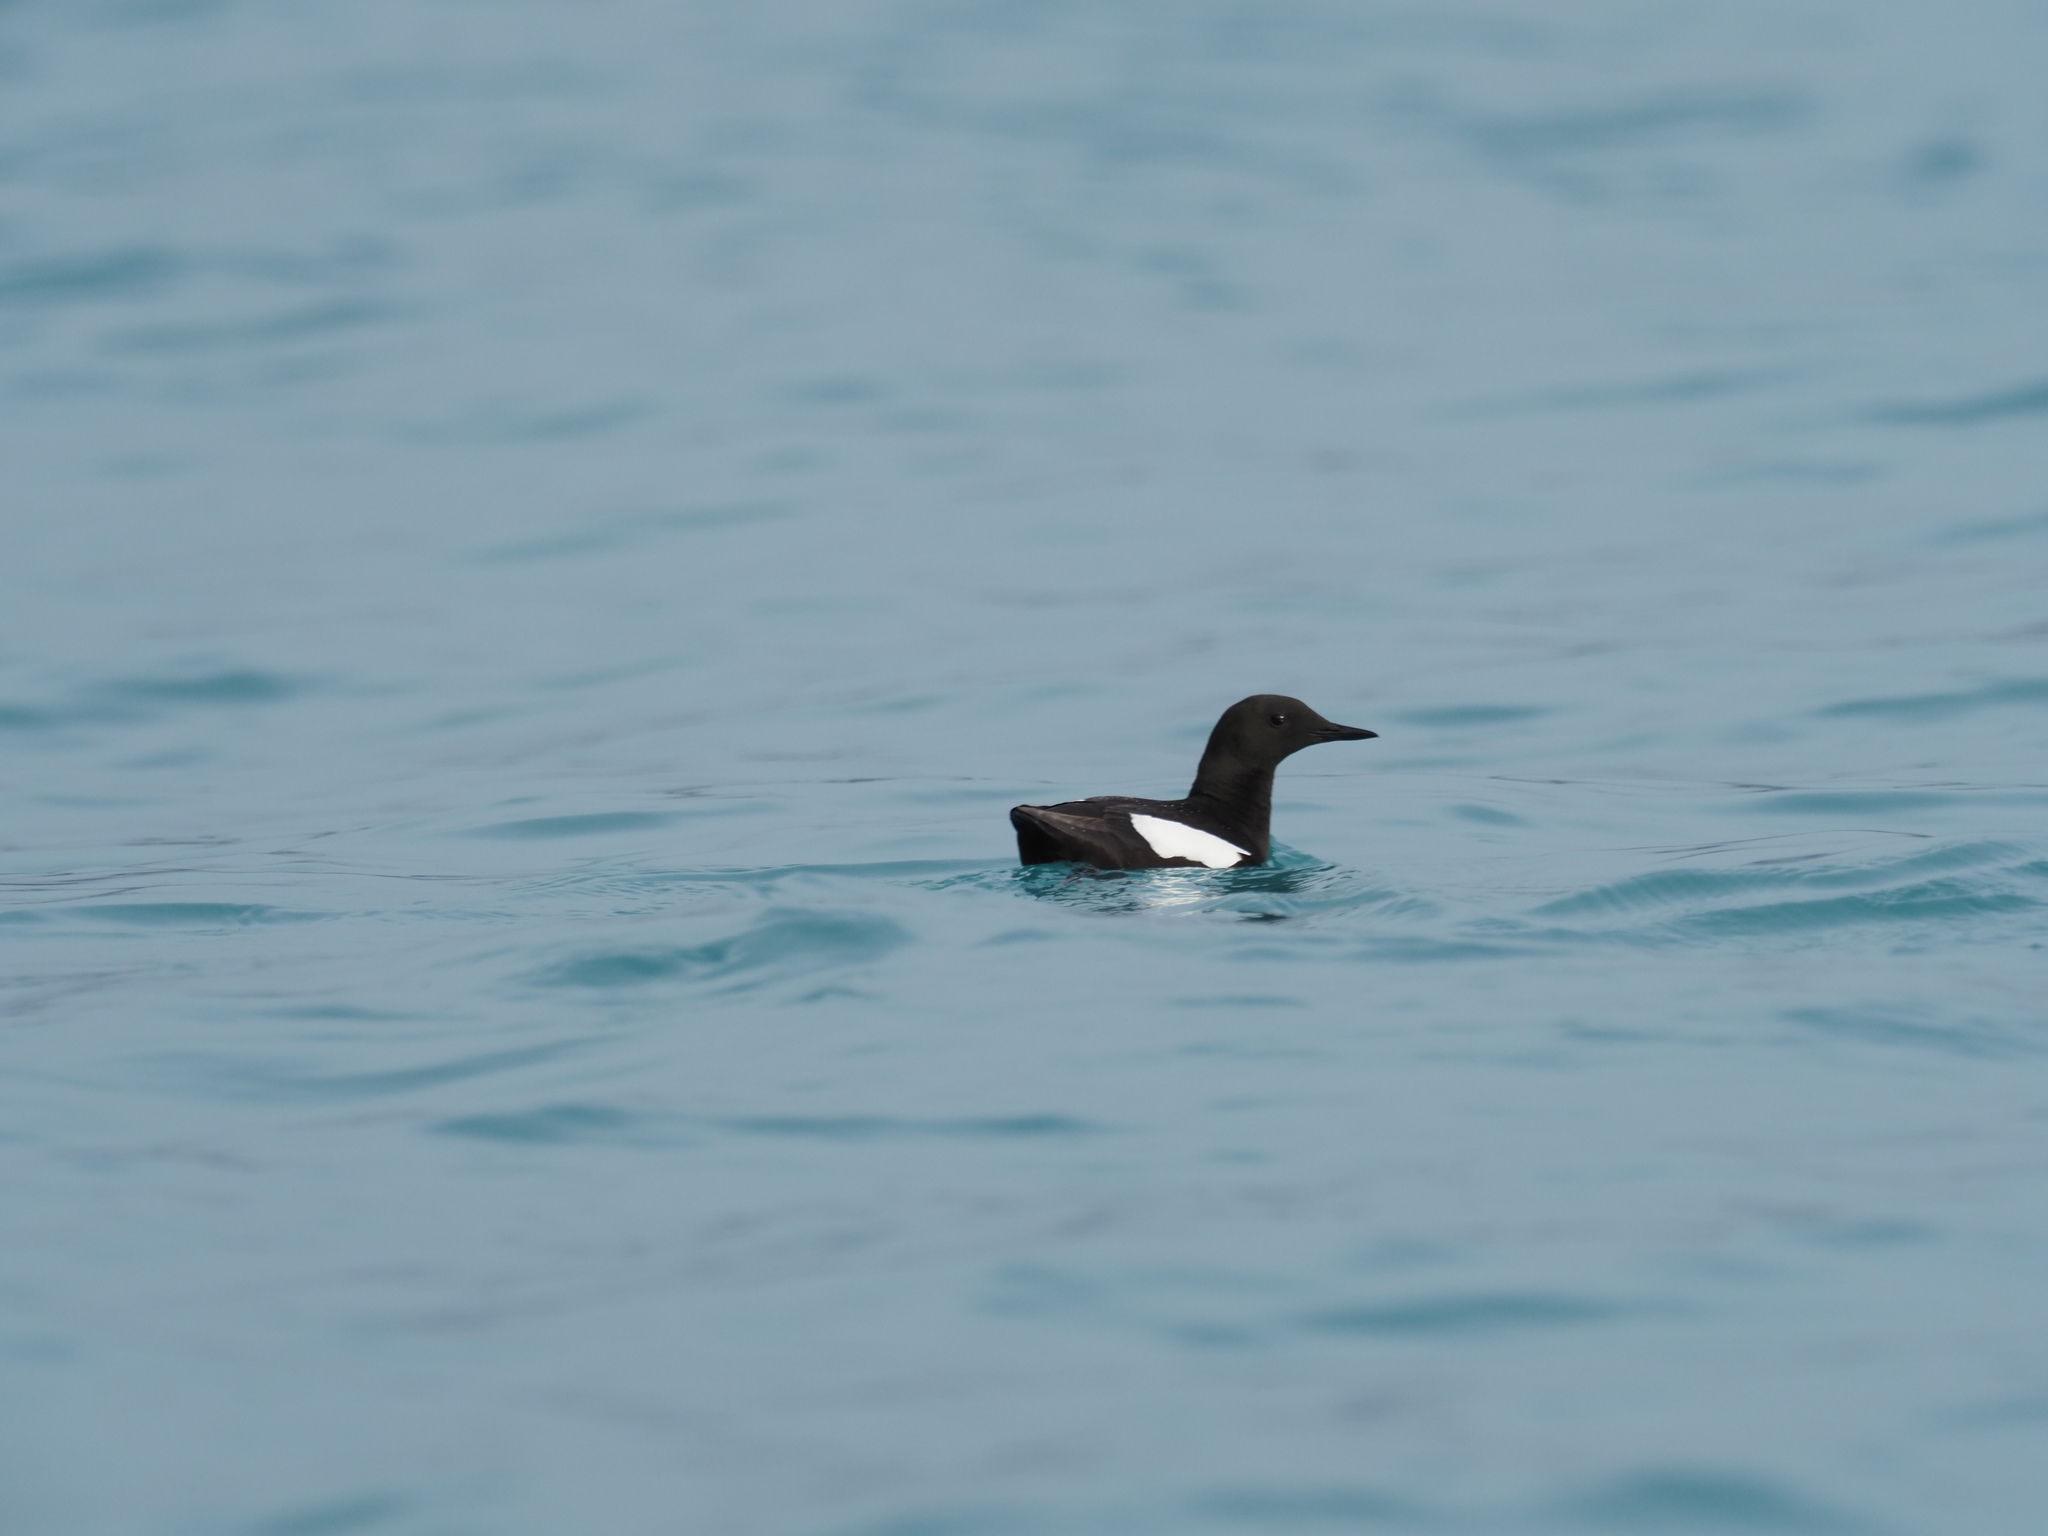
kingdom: Animalia
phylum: Chordata
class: Aves
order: Charadriiformes
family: Alcidae
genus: Cepphus
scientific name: Cepphus grylle
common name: Black guillemot
